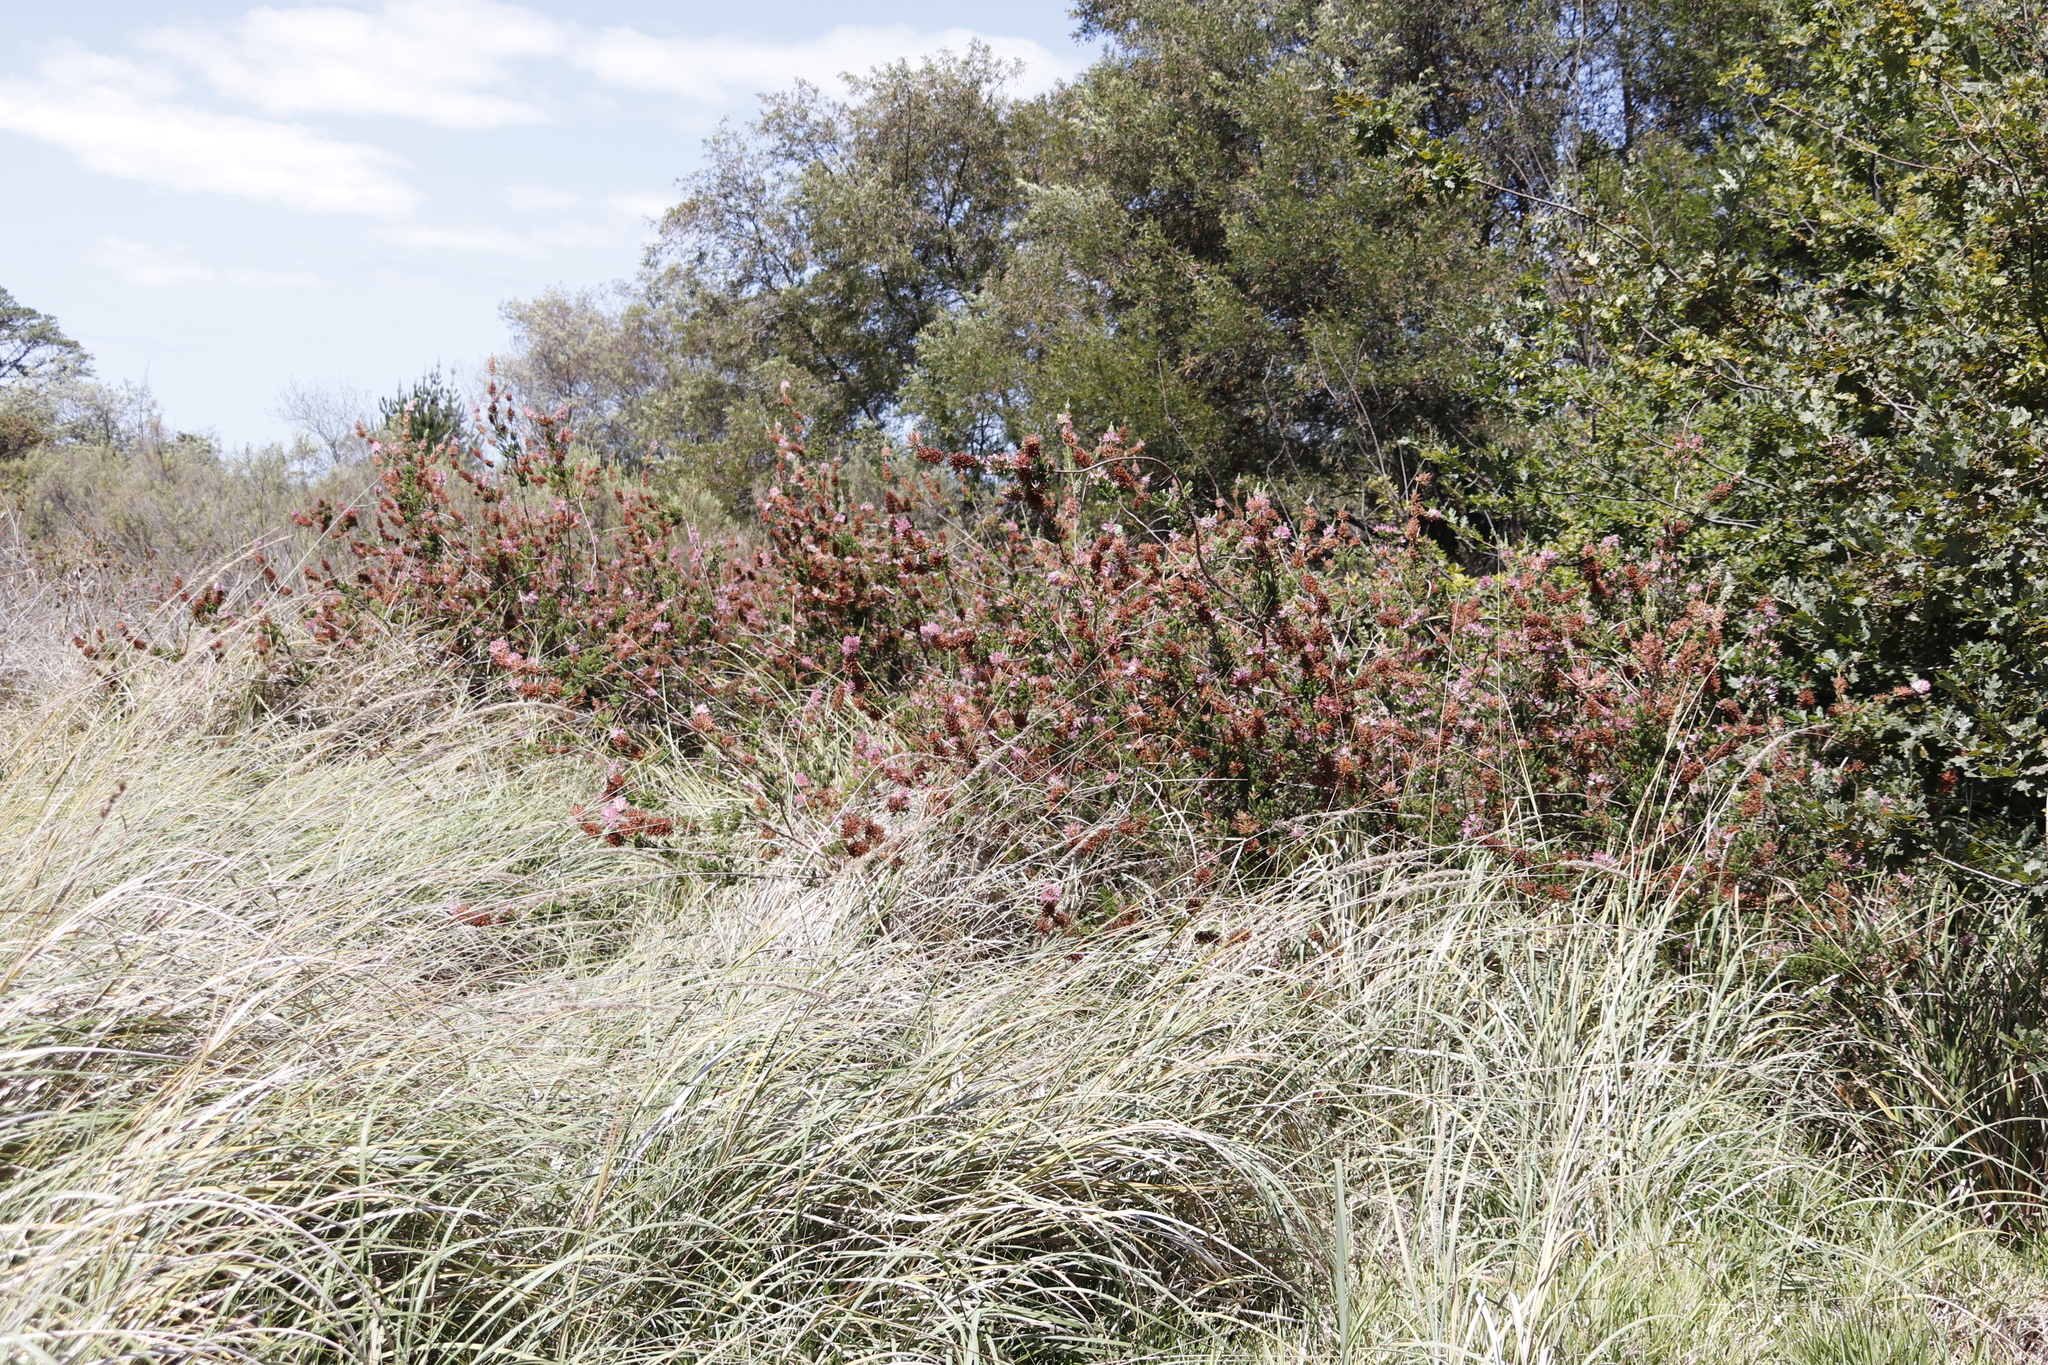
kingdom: Plantae
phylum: Tracheophyta
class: Magnoliopsida
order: Ericales
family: Ericaceae
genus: Erica
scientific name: Erica verticillata
